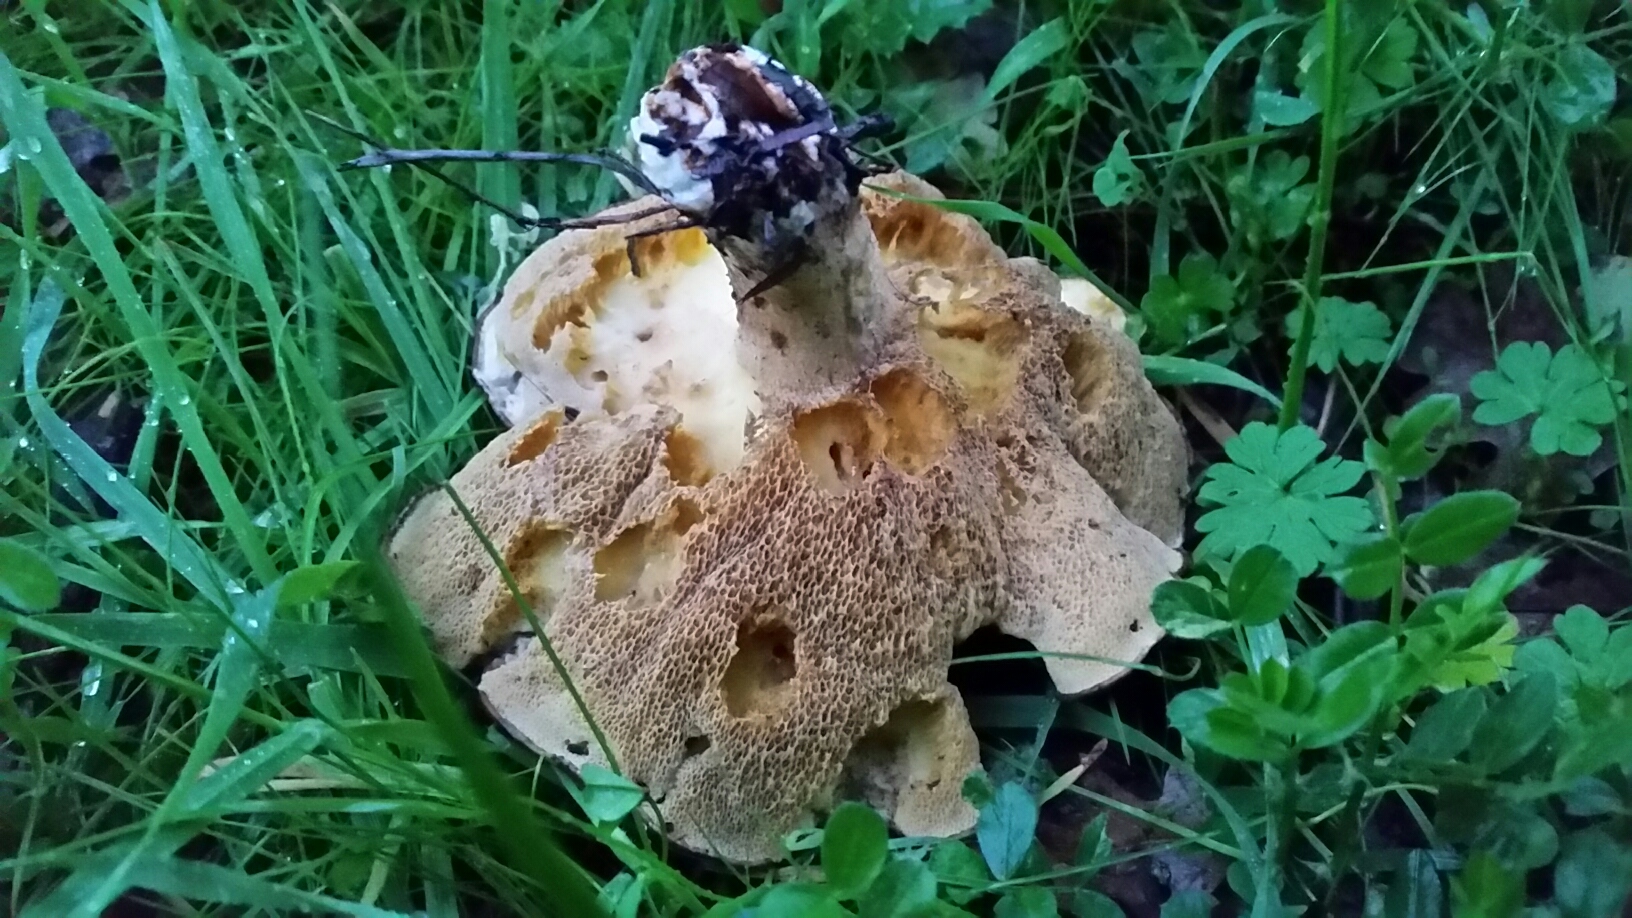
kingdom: Fungi
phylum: Basidiomycota
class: Agaricomycetes
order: Boletales
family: Suillaceae
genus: Suillus
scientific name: Suillus pungens
